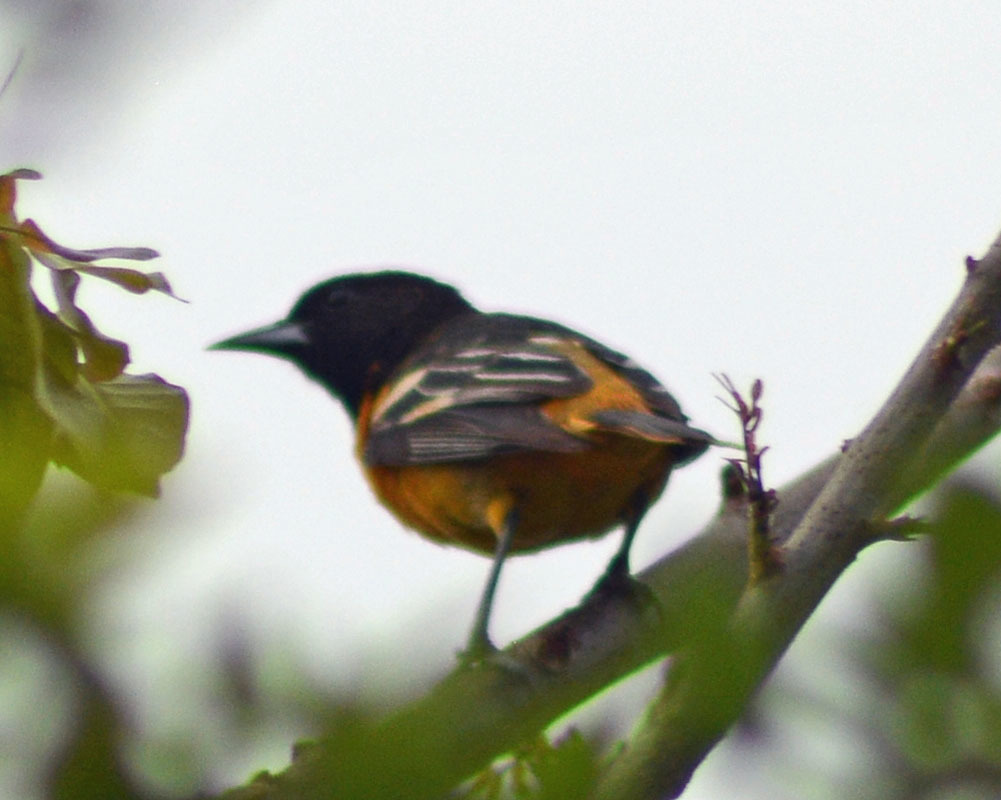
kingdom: Animalia
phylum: Chordata
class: Aves
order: Passeriformes
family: Icteridae
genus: Icterus
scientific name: Icterus galbula
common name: Baltimore oriole
